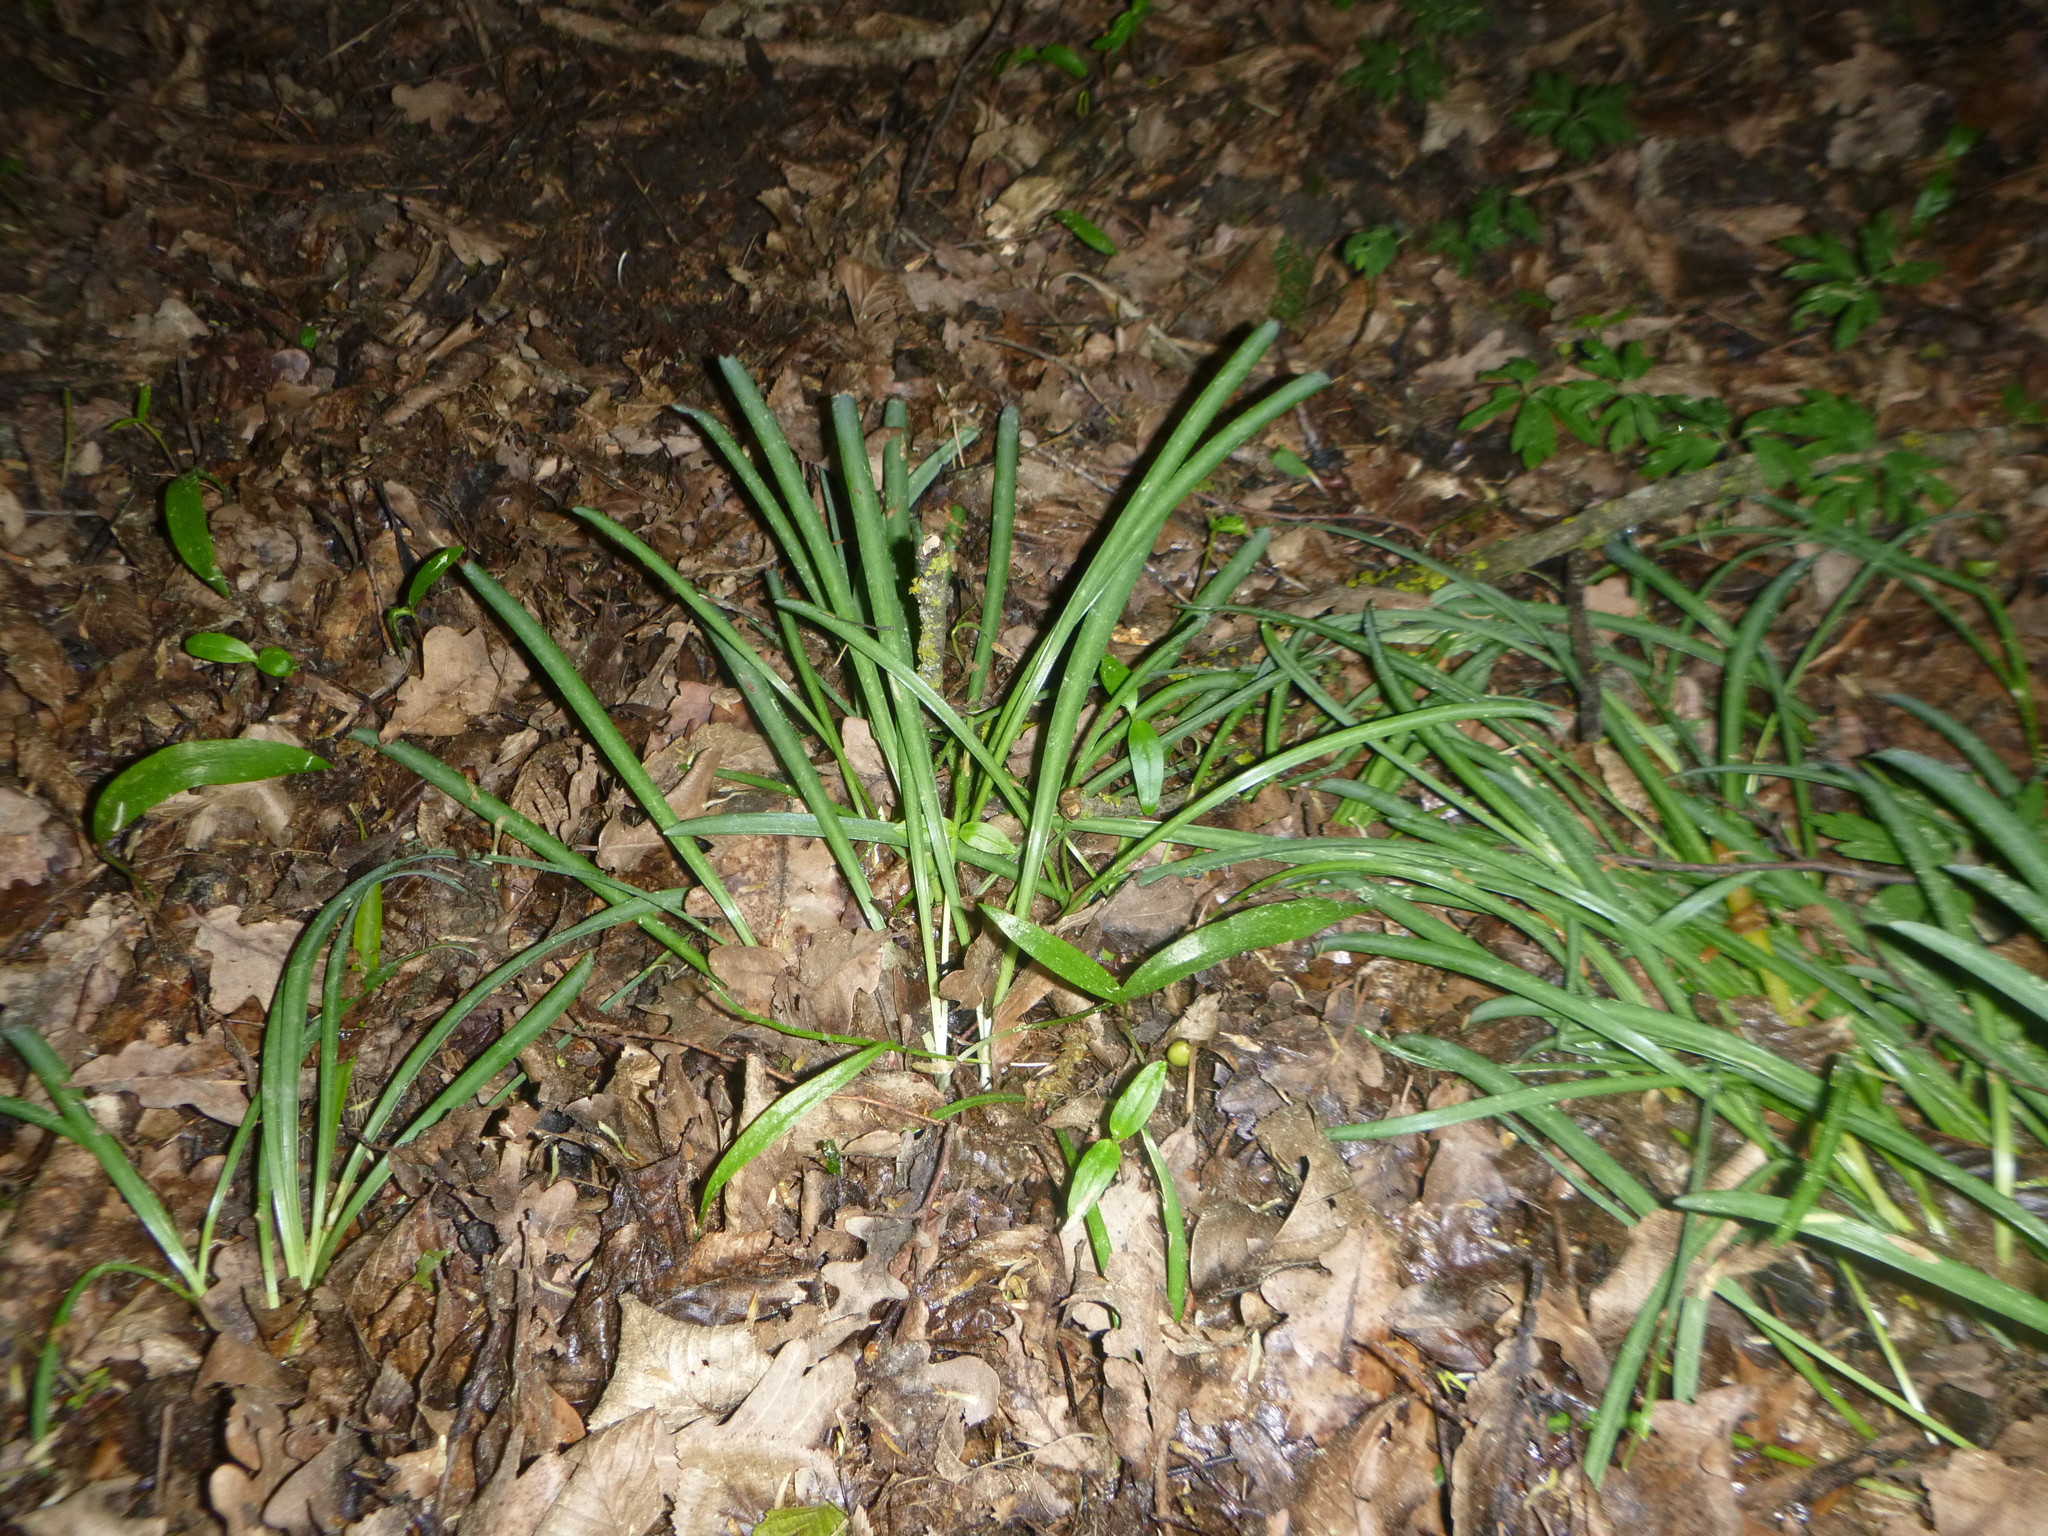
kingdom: Plantae
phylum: Tracheophyta
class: Liliopsida
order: Asparagales
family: Amaryllidaceae
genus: Galanthus
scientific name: Galanthus nivalis
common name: Snowdrop
